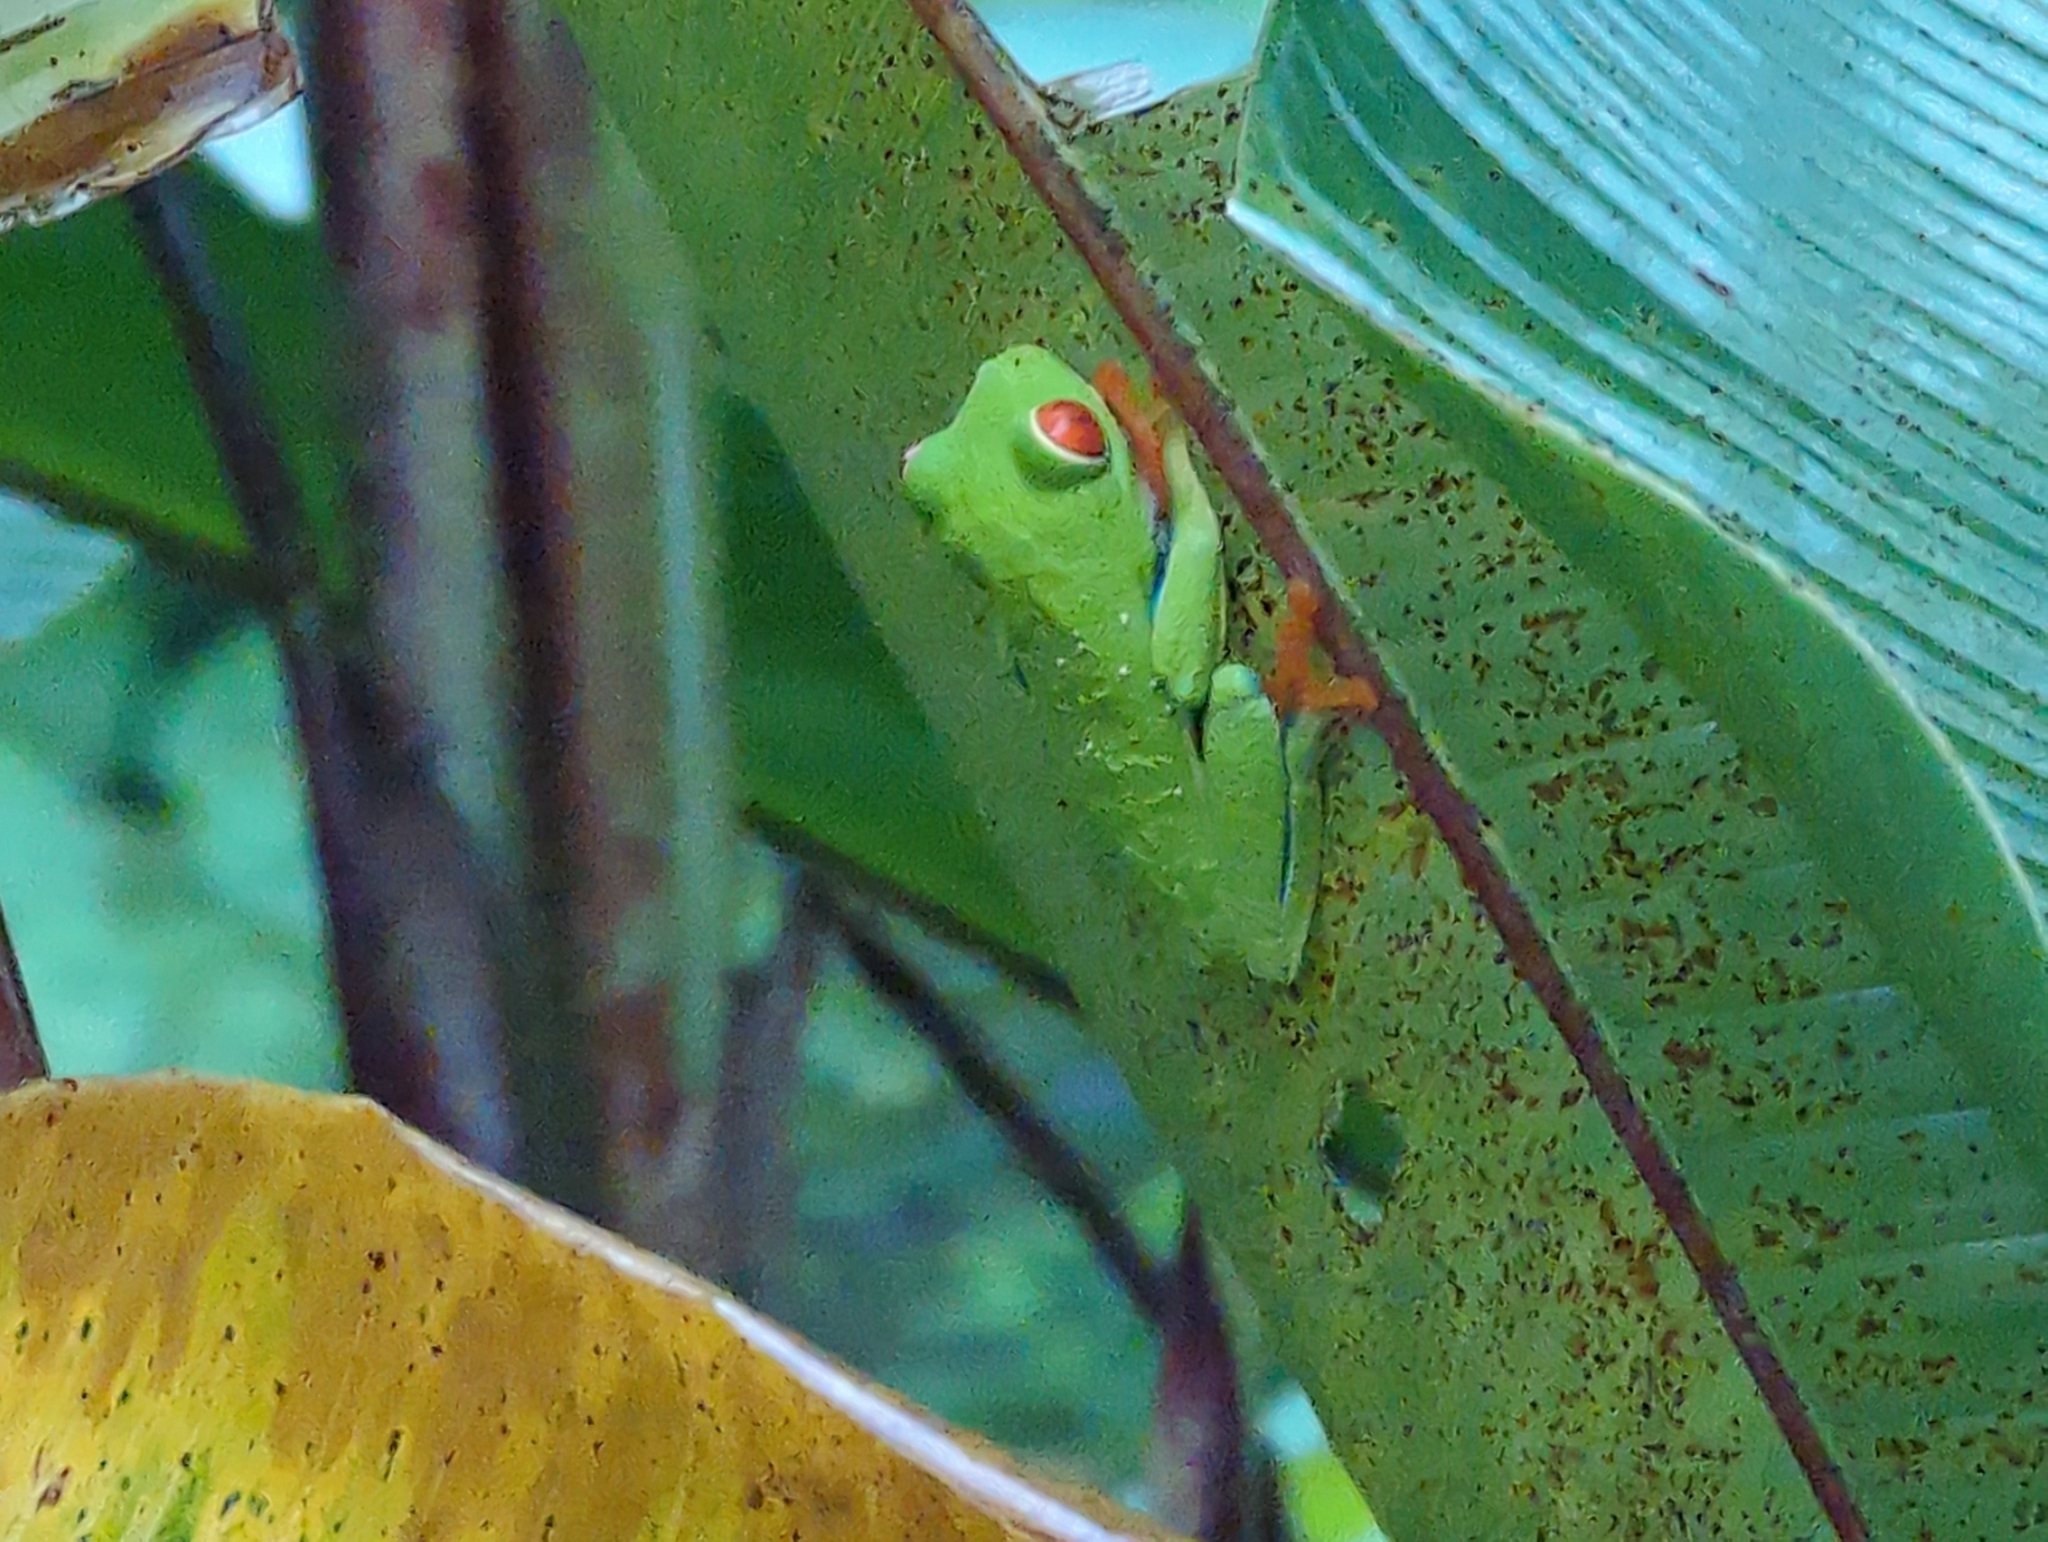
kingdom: Animalia
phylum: Chordata
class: Amphibia
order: Anura
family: Phyllomedusidae
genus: Agalychnis
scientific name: Agalychnis callidryas
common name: Red-eyed treefrog
